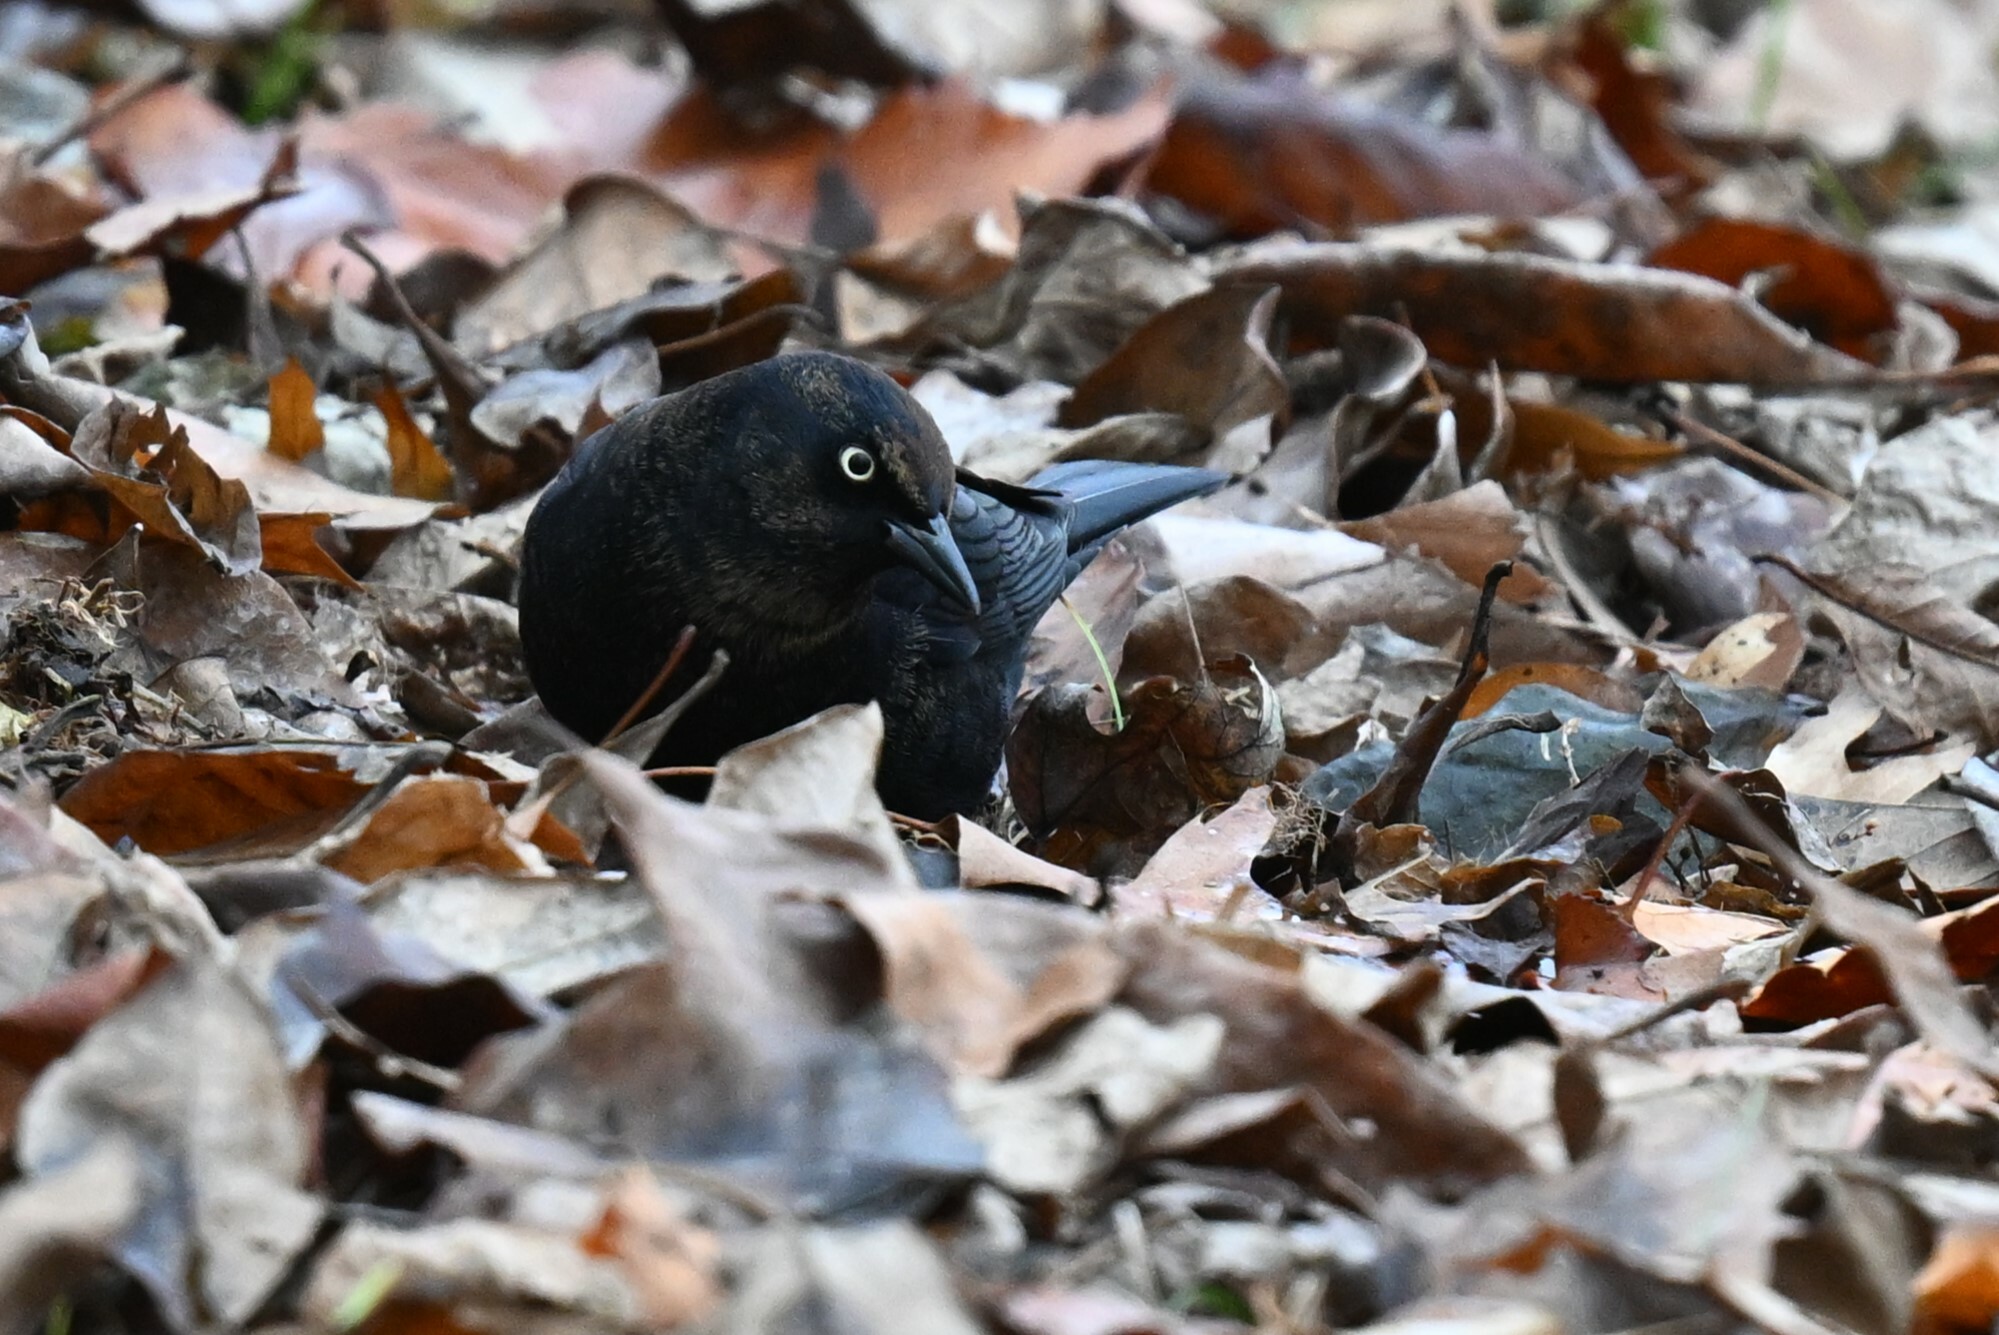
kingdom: Animalia
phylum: Chordata
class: Aves
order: Passeriformes
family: Icteridae
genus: Euphagus
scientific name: Euphagus carolinus
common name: Rusty blackbird
